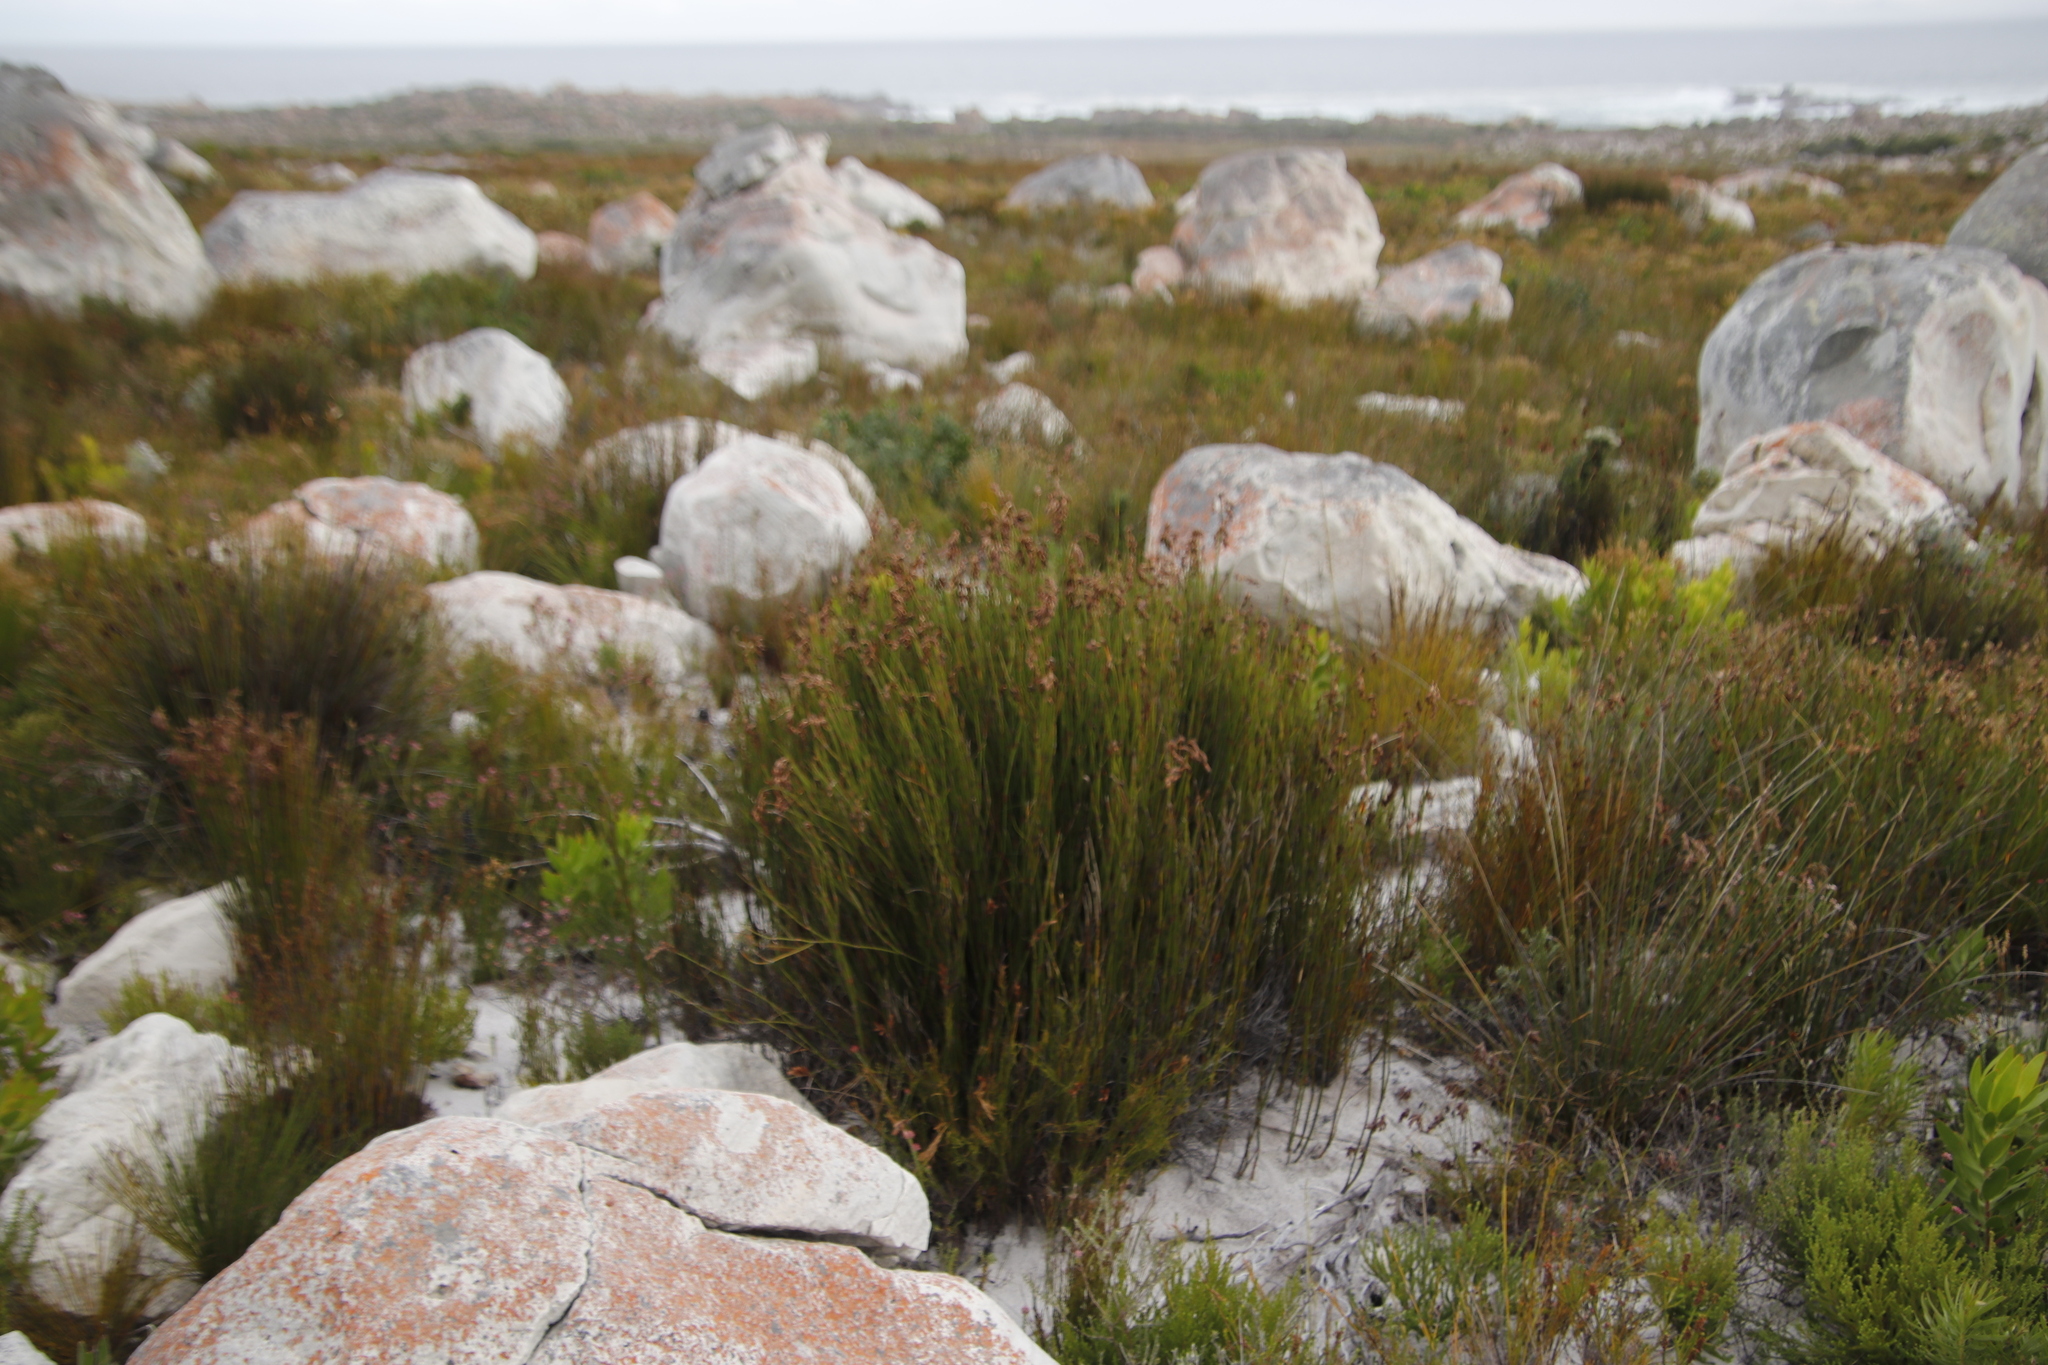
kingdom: Plantae
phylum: Tracheophyta
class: Liliopsida
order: Poales
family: Restionaceae
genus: Restio
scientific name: Restio egregius
